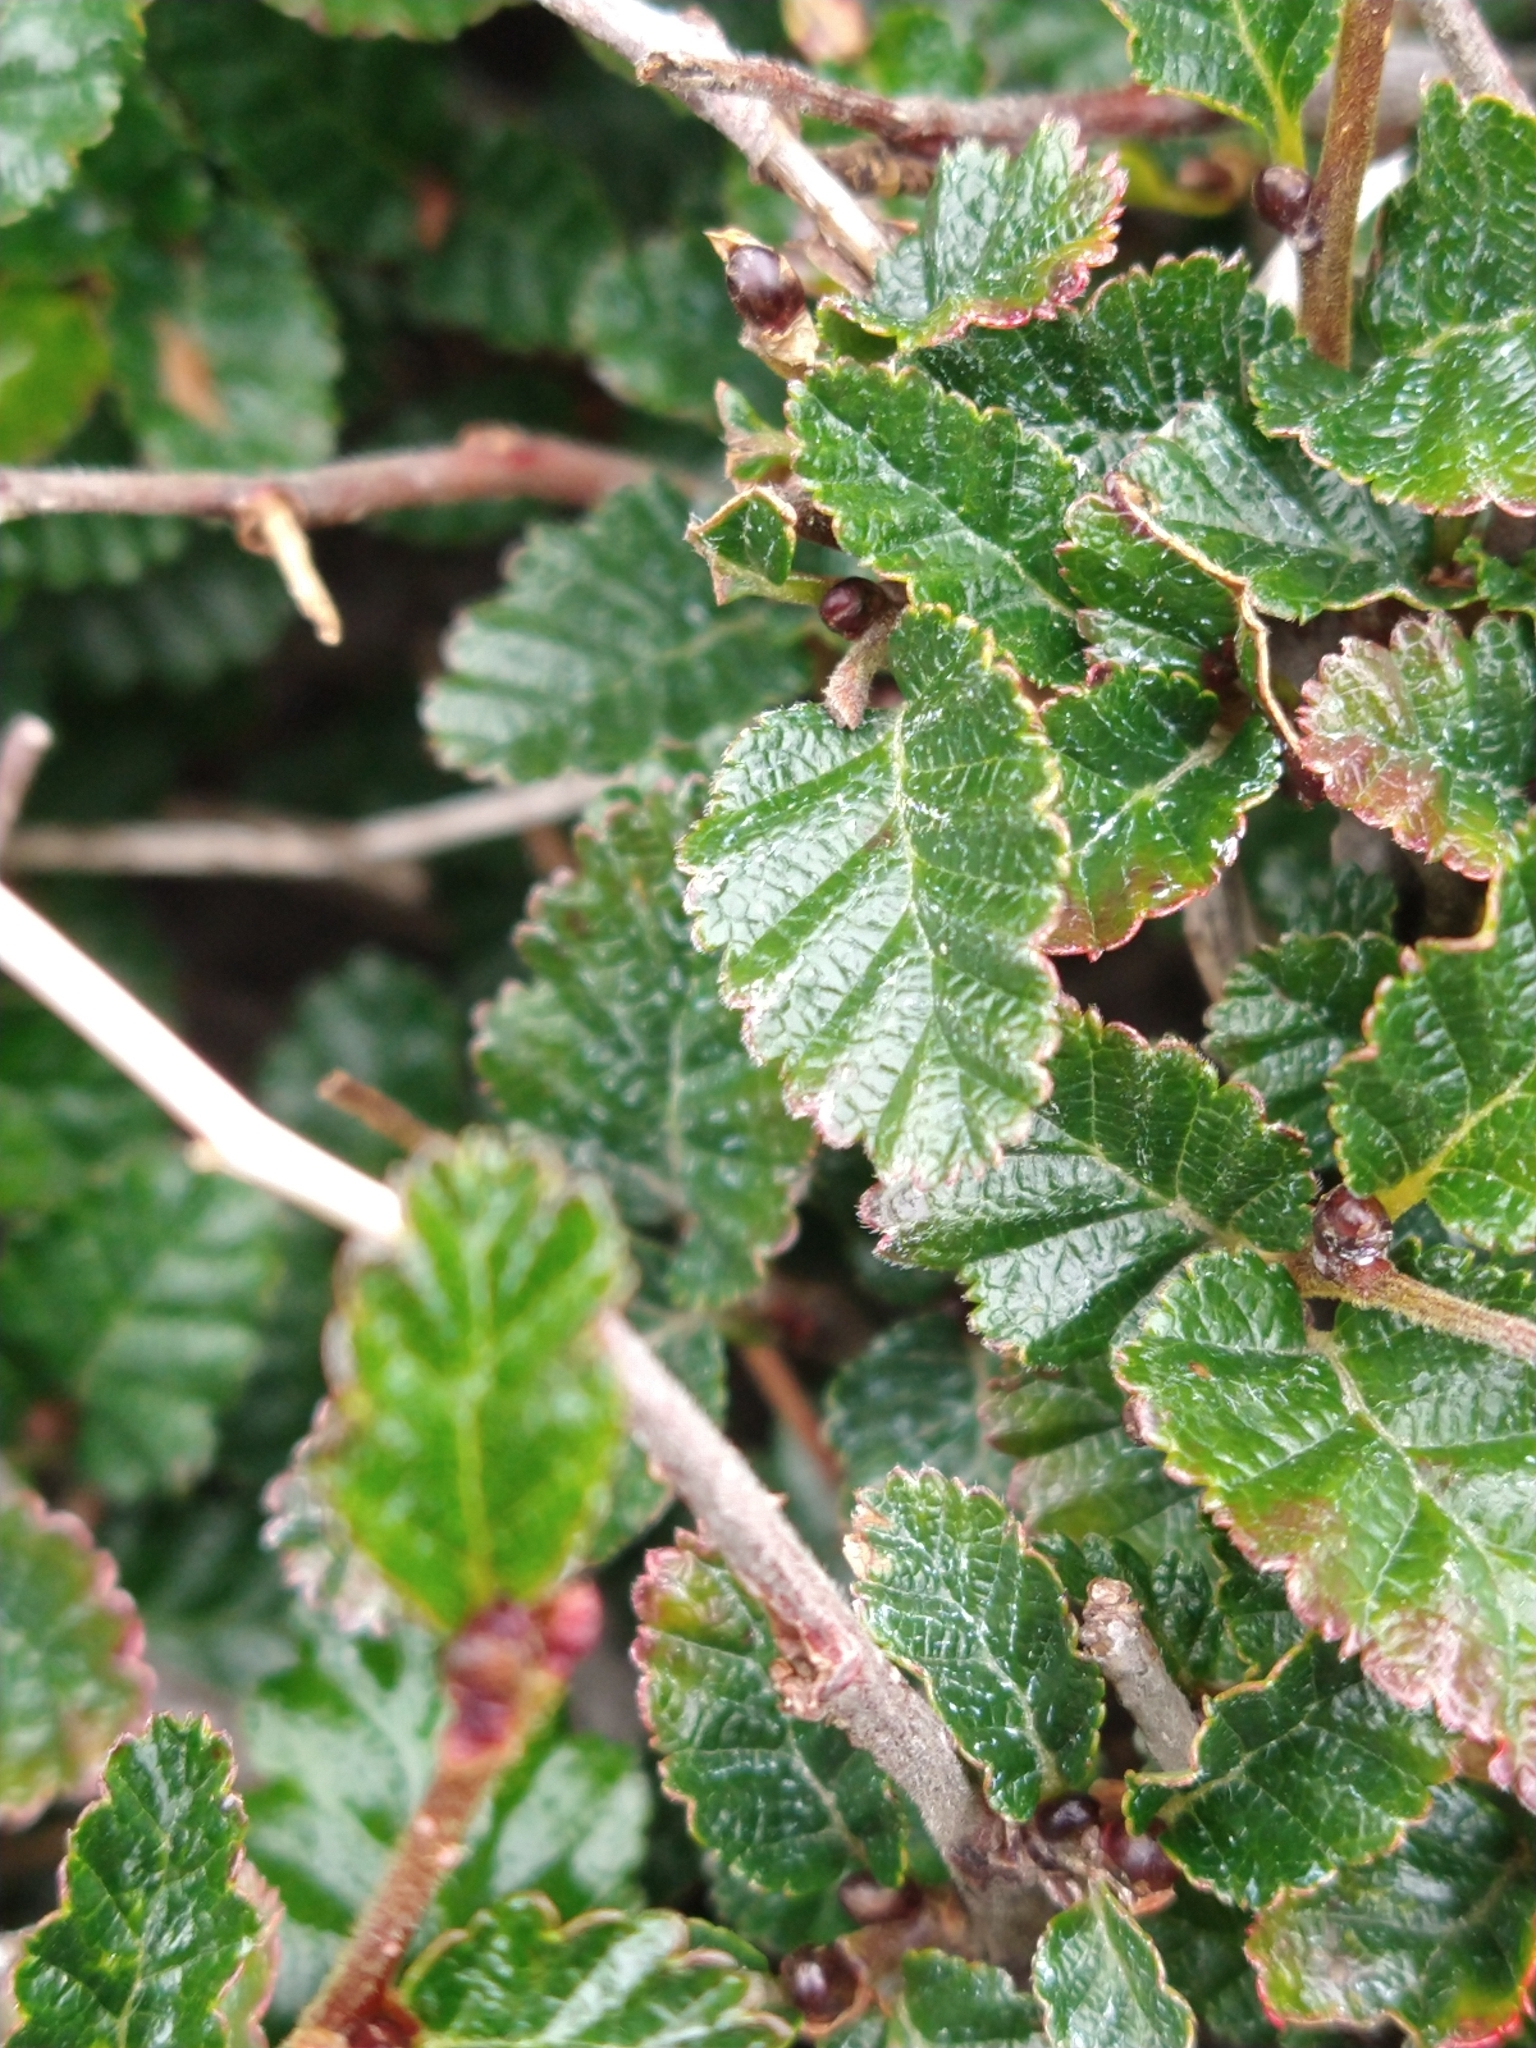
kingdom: Plantae
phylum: Tracheophyta
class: Magnoliopsida
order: Fagales
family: Nothofagaceae
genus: Nothofagus
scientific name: Nothofagus pumilio
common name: Lenga beech
